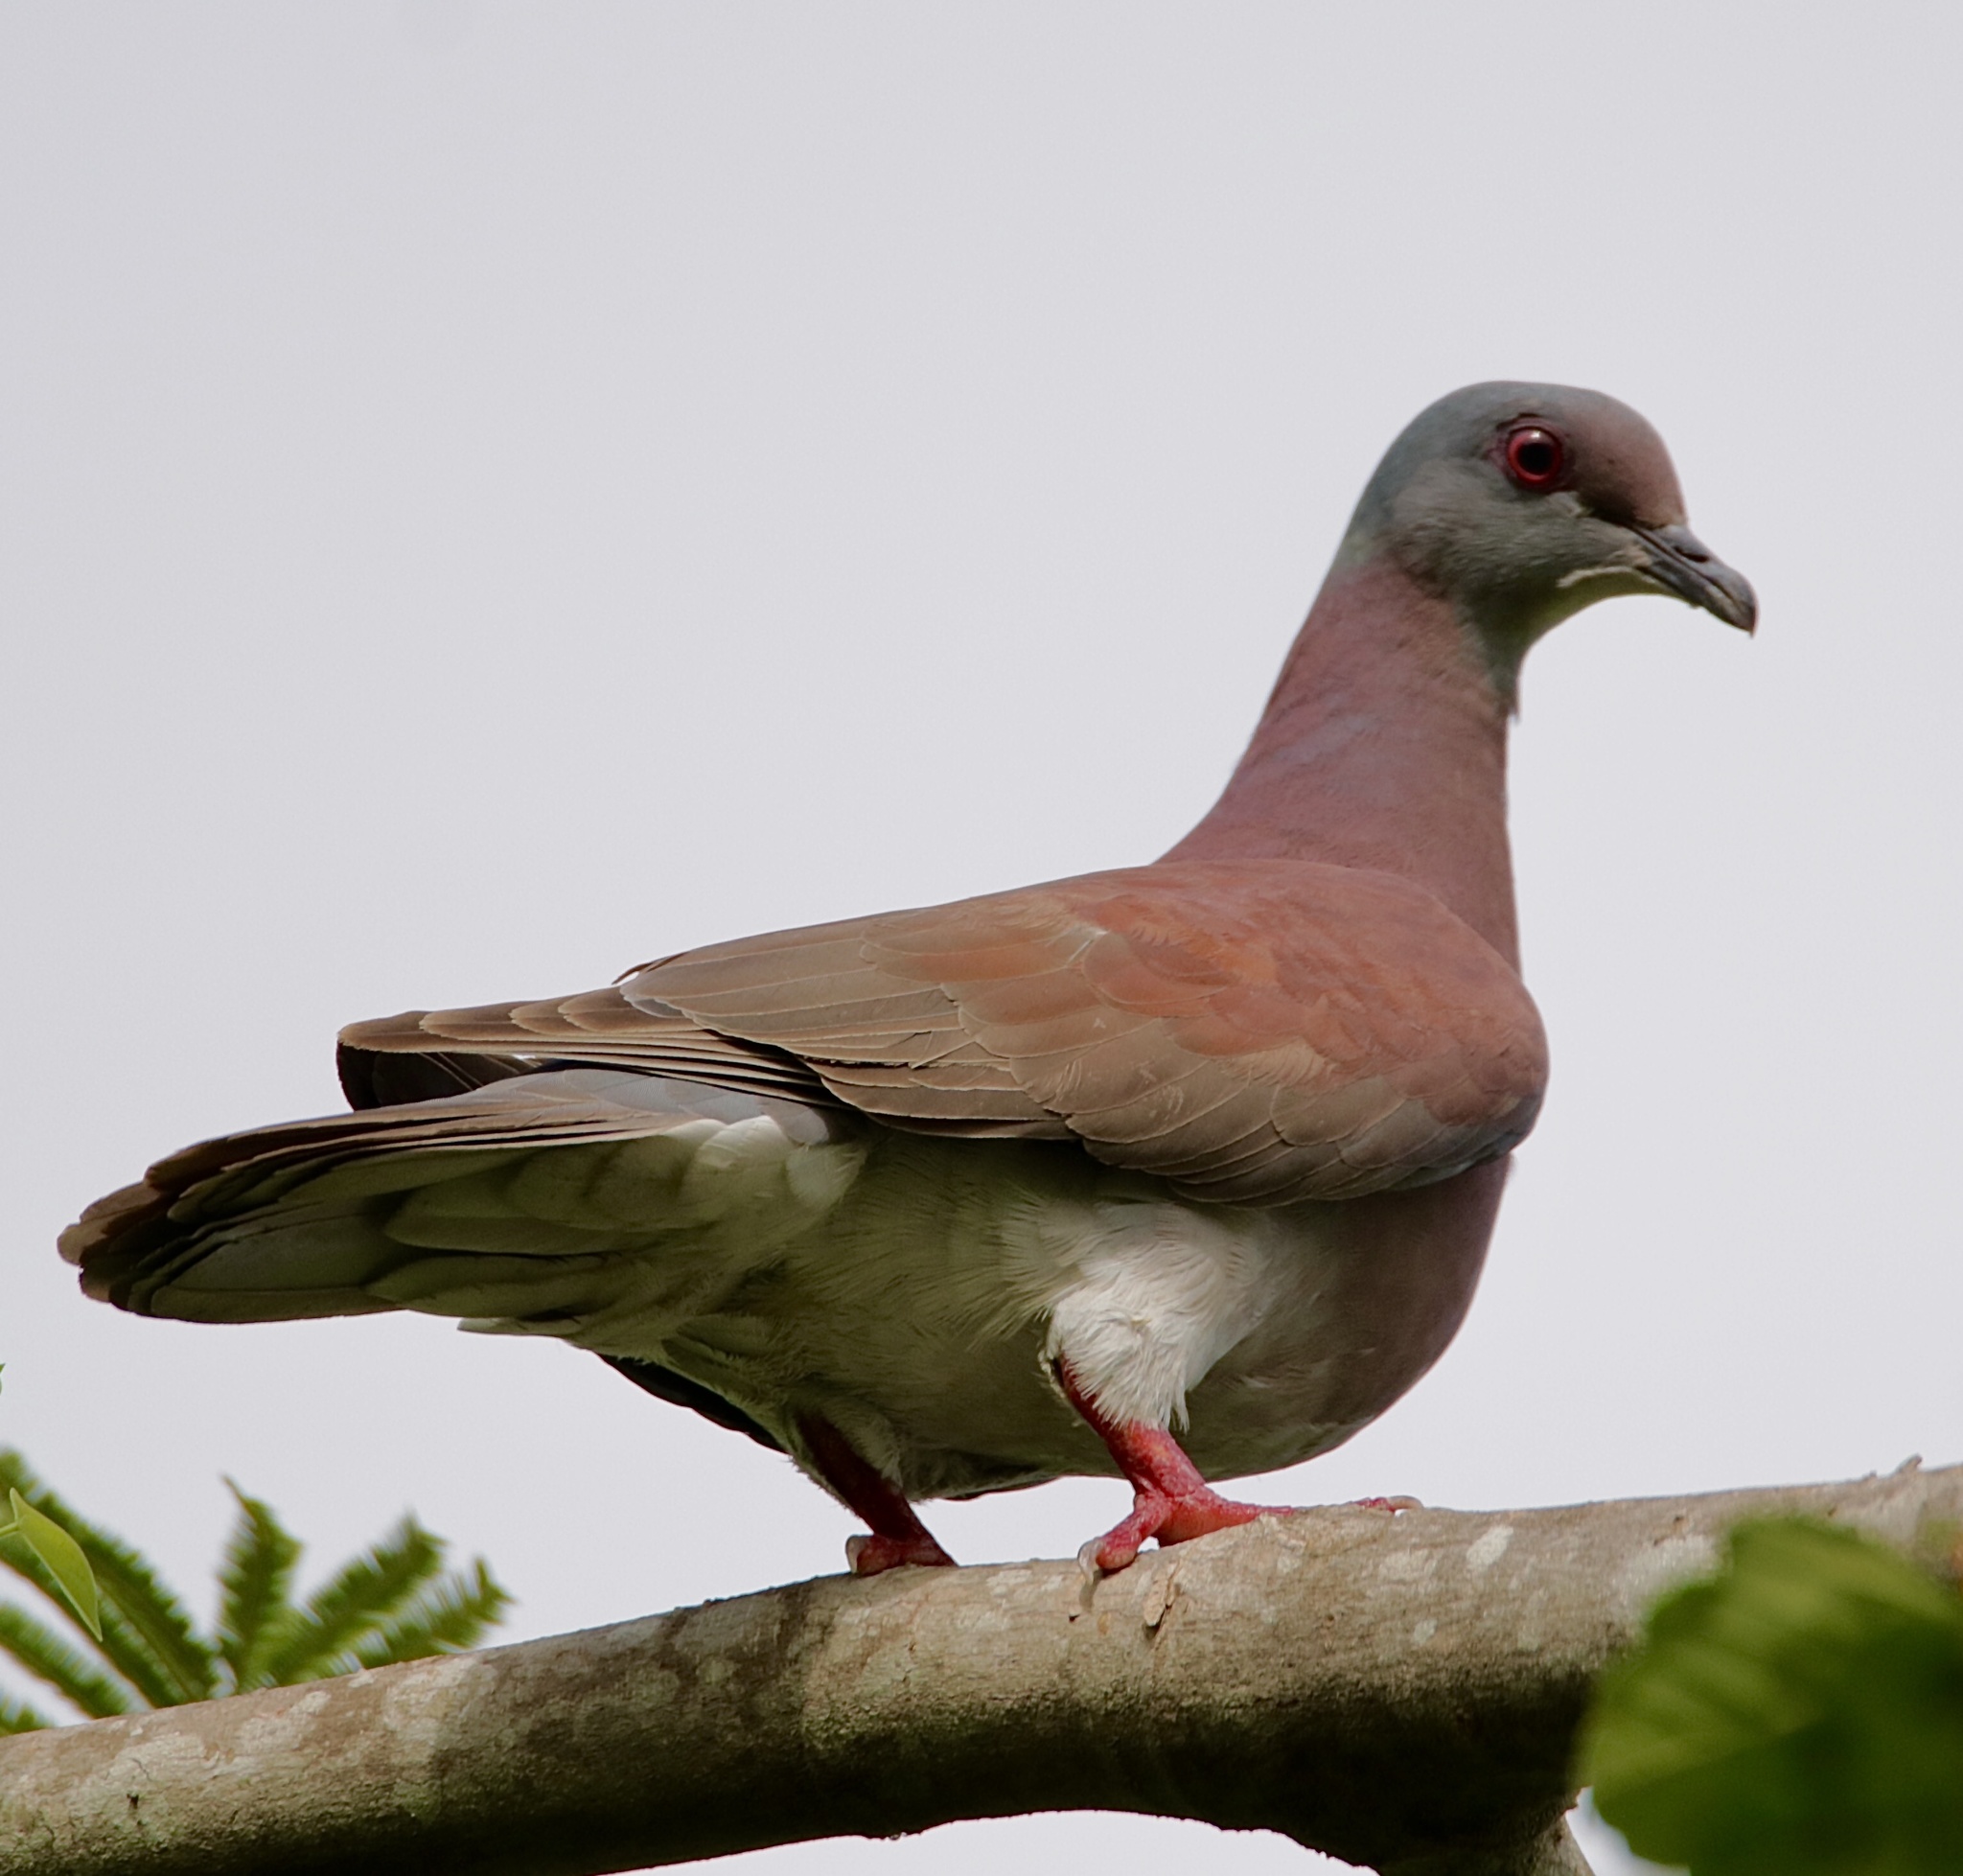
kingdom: Animalia
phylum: Chordata
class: Aves
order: Columbiformes
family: Columbidae
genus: Patagioenas
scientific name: Patagioenas cayennensis
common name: Pale-vented pigeon
